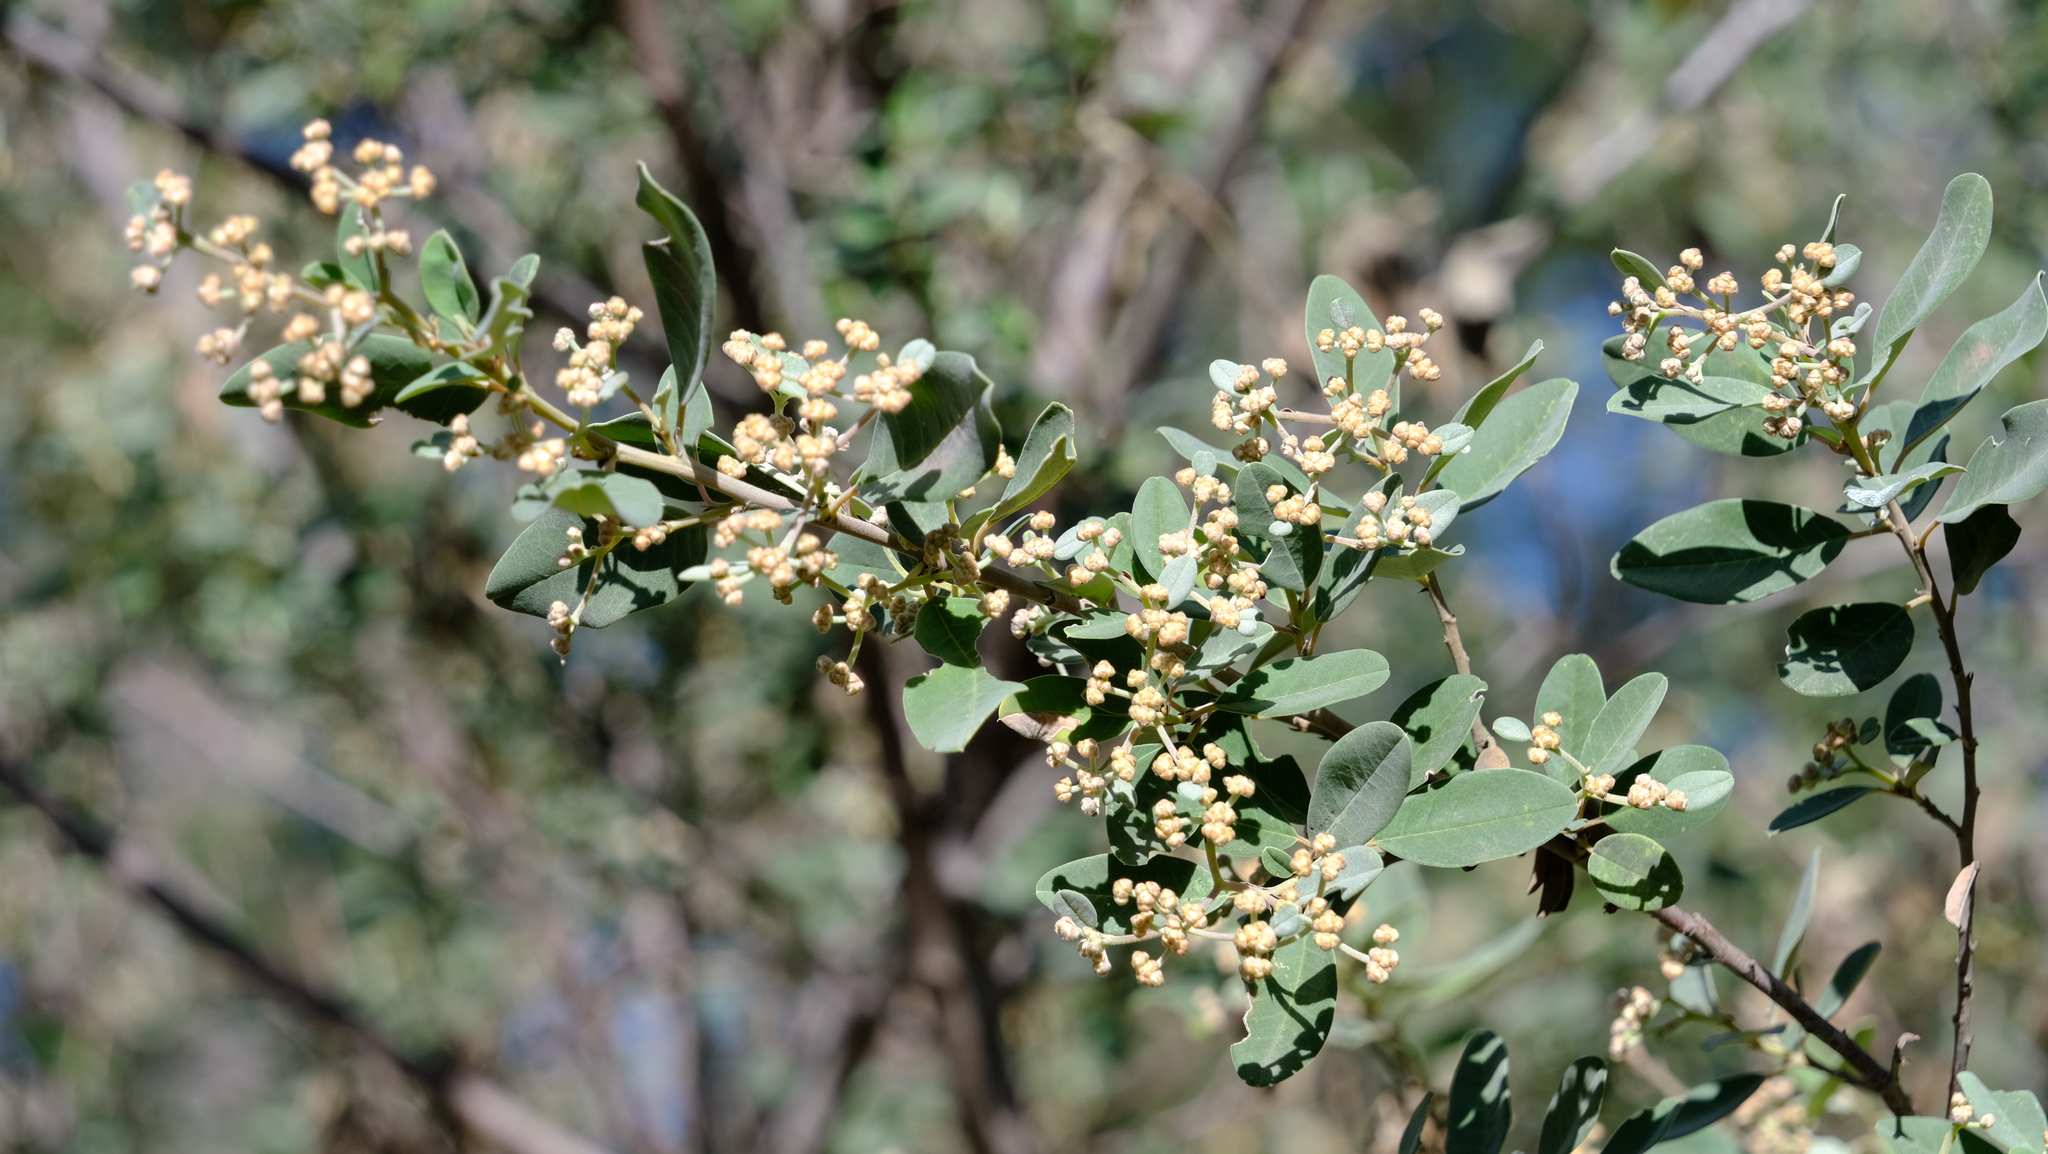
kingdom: Plantae
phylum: Tracheophyta
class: Magnoliopsida
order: Rosales
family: Rhamnaceae
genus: Spyridium
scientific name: Spyridium globulosum
